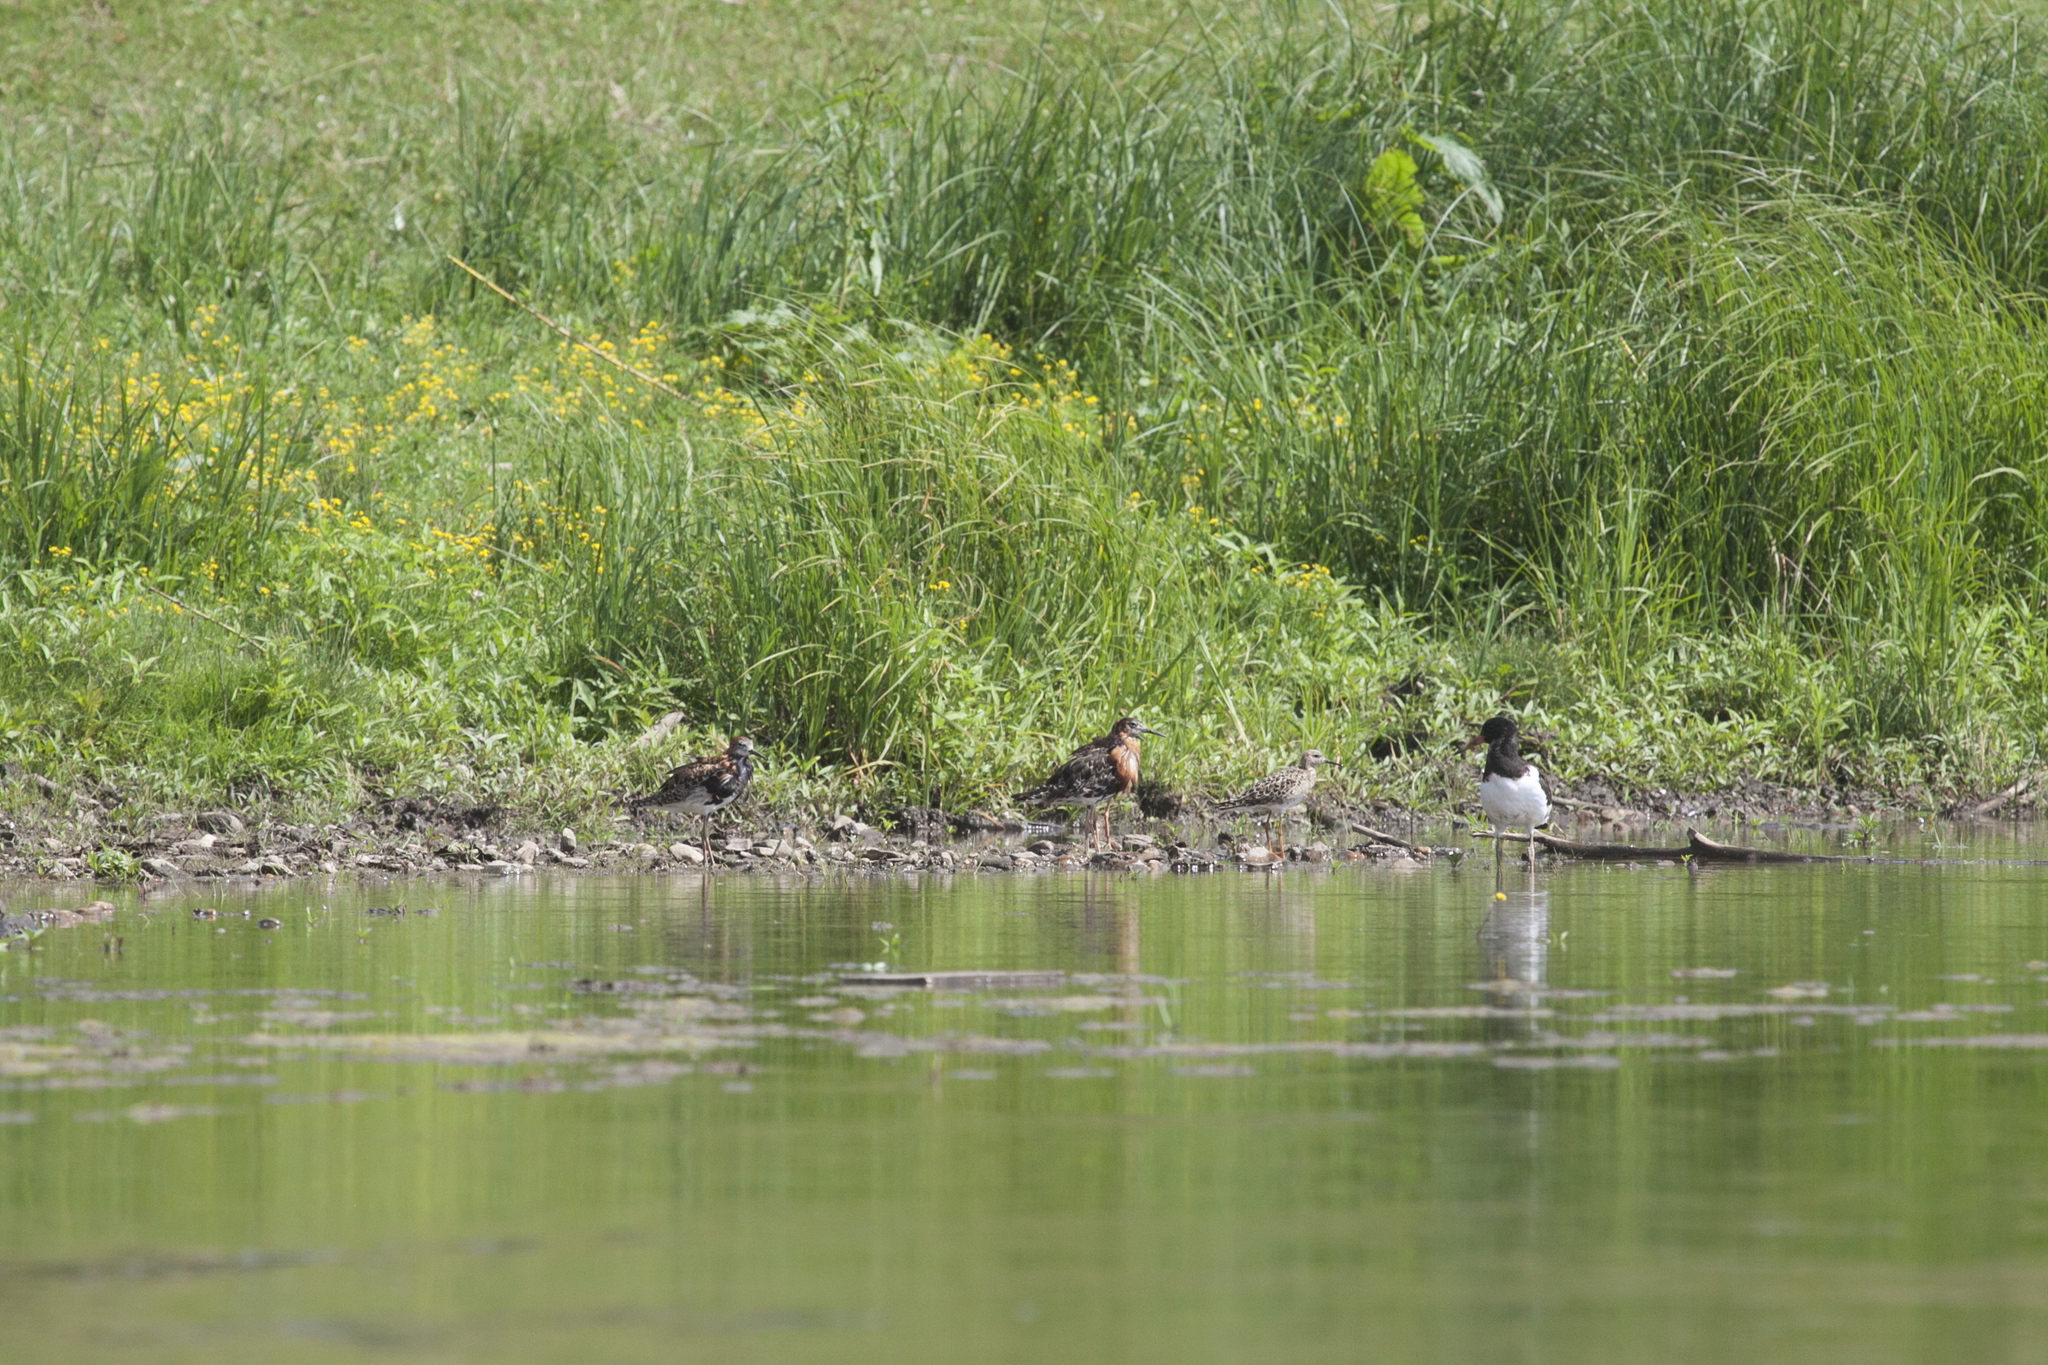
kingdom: Animalia
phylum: Chordata
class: Aves
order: Charadriiformes
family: Scolopacidae
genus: Calidris
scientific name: Calidris pugnax
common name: Ruff
